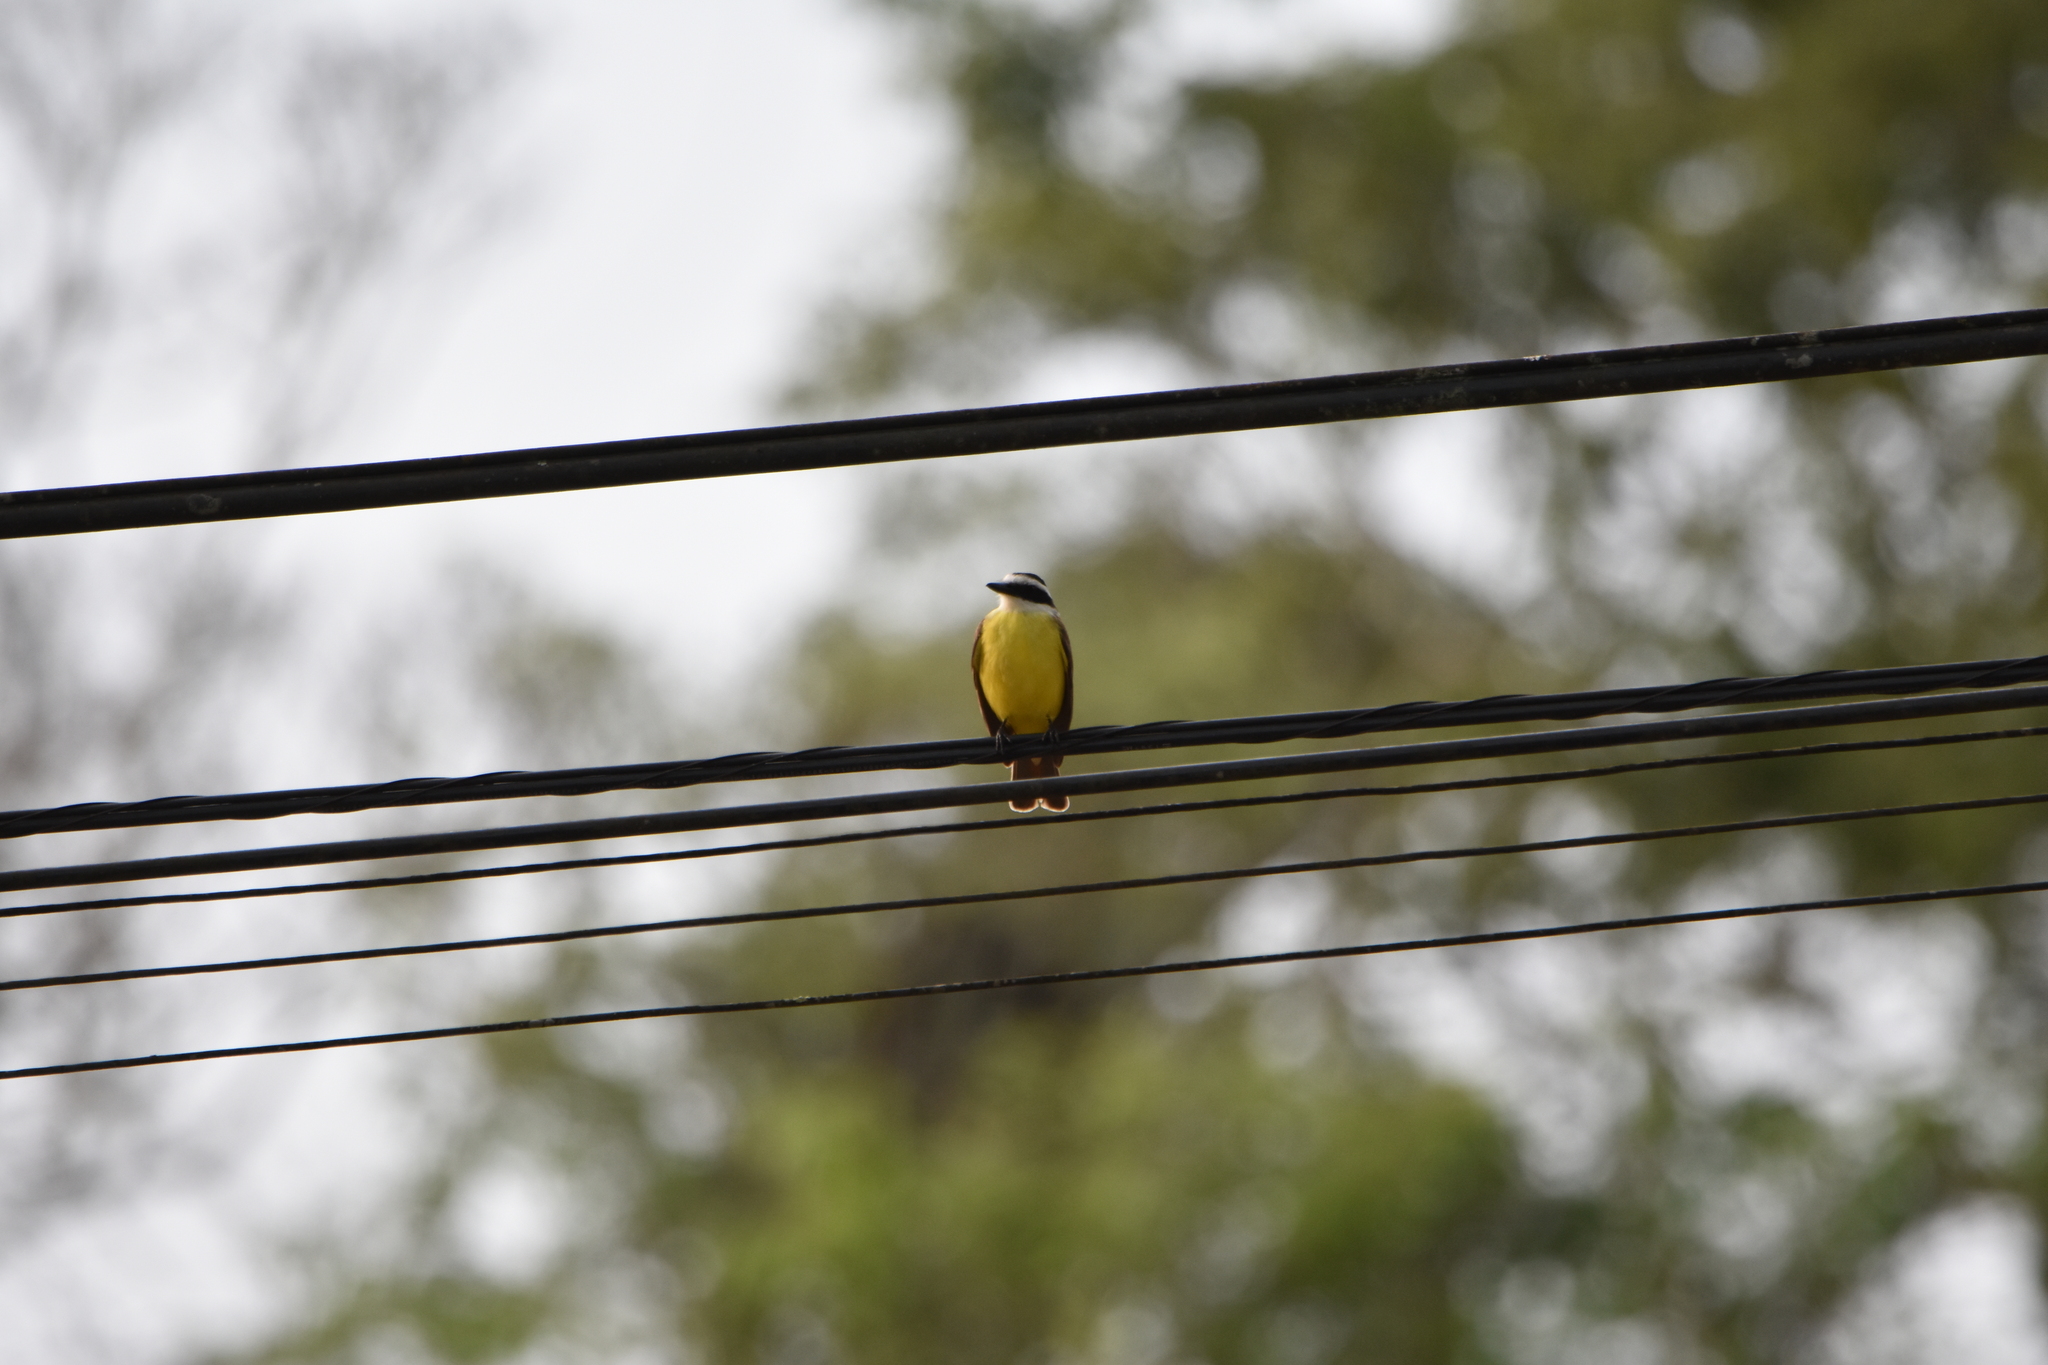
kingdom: Animalia
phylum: Chordata
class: Aves
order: Passeriformes
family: Tyrannidae
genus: Pitangus
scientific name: Pitangus sulphuratus
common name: Great kiskadee
